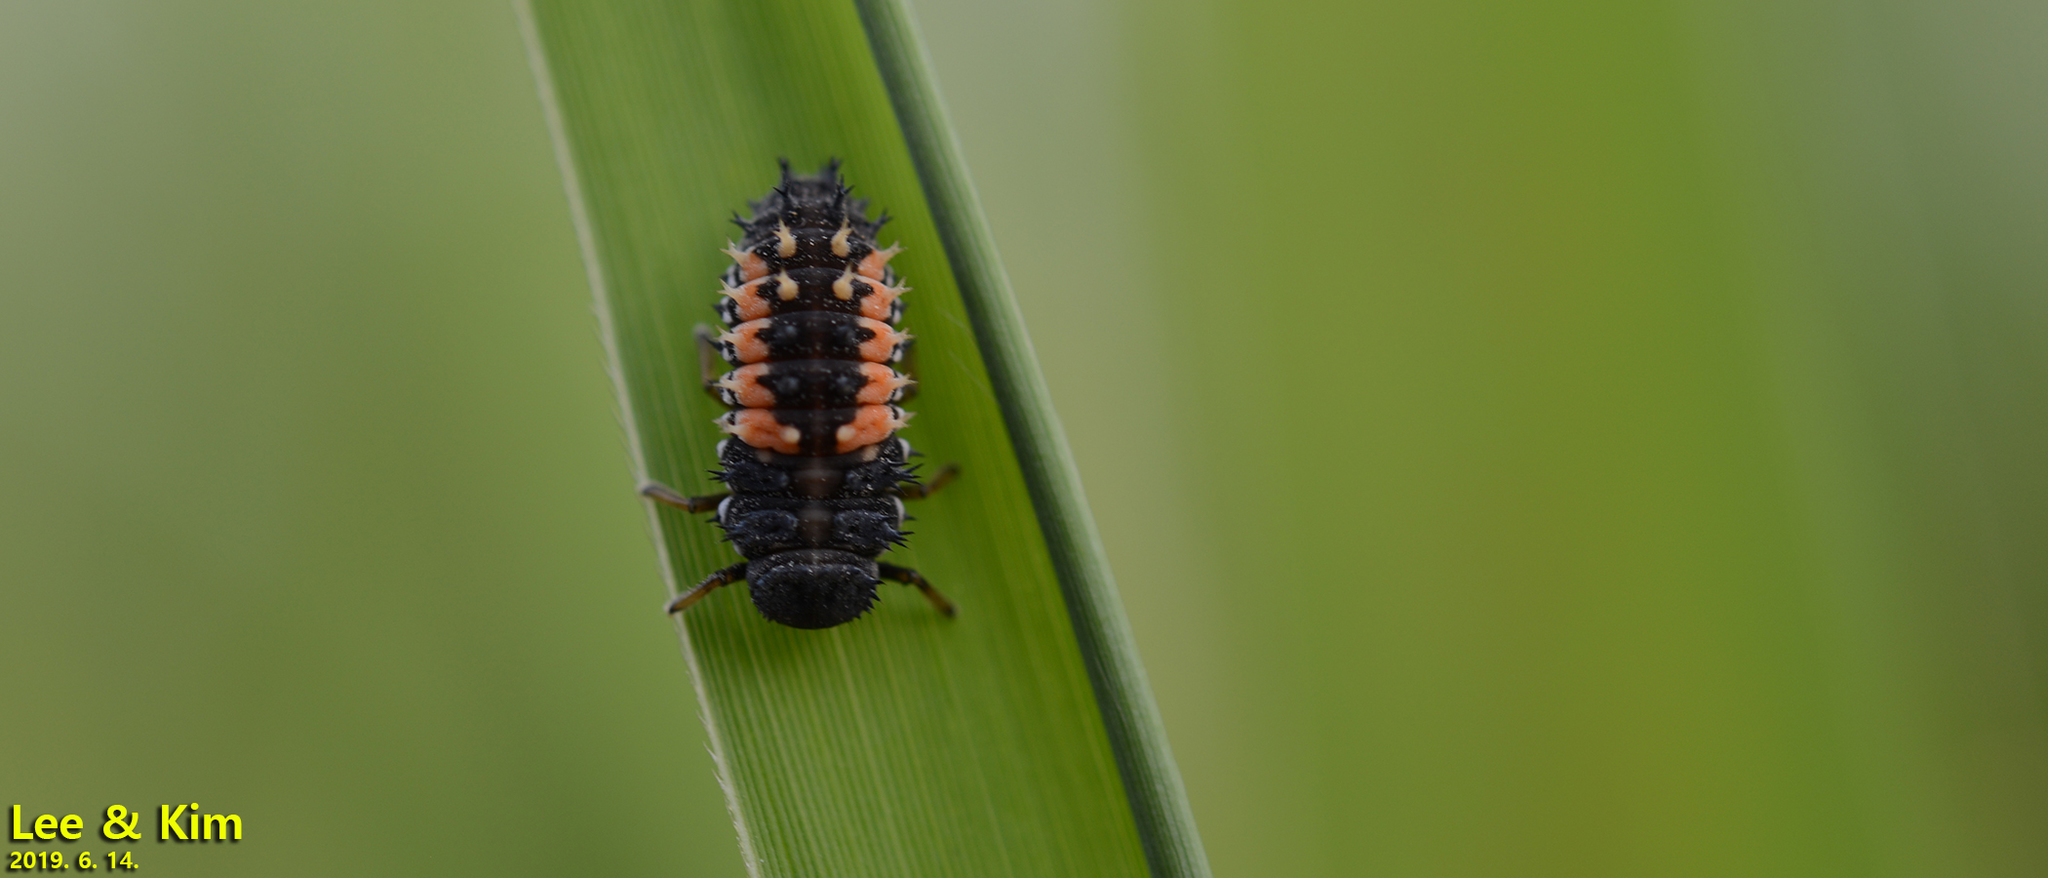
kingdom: Animalia
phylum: Arthropoda
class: Insecta
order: Coleoptera
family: Coccinellidae
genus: Harmonia
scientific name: Harmonia axyridis
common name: Harlequin ladybird
